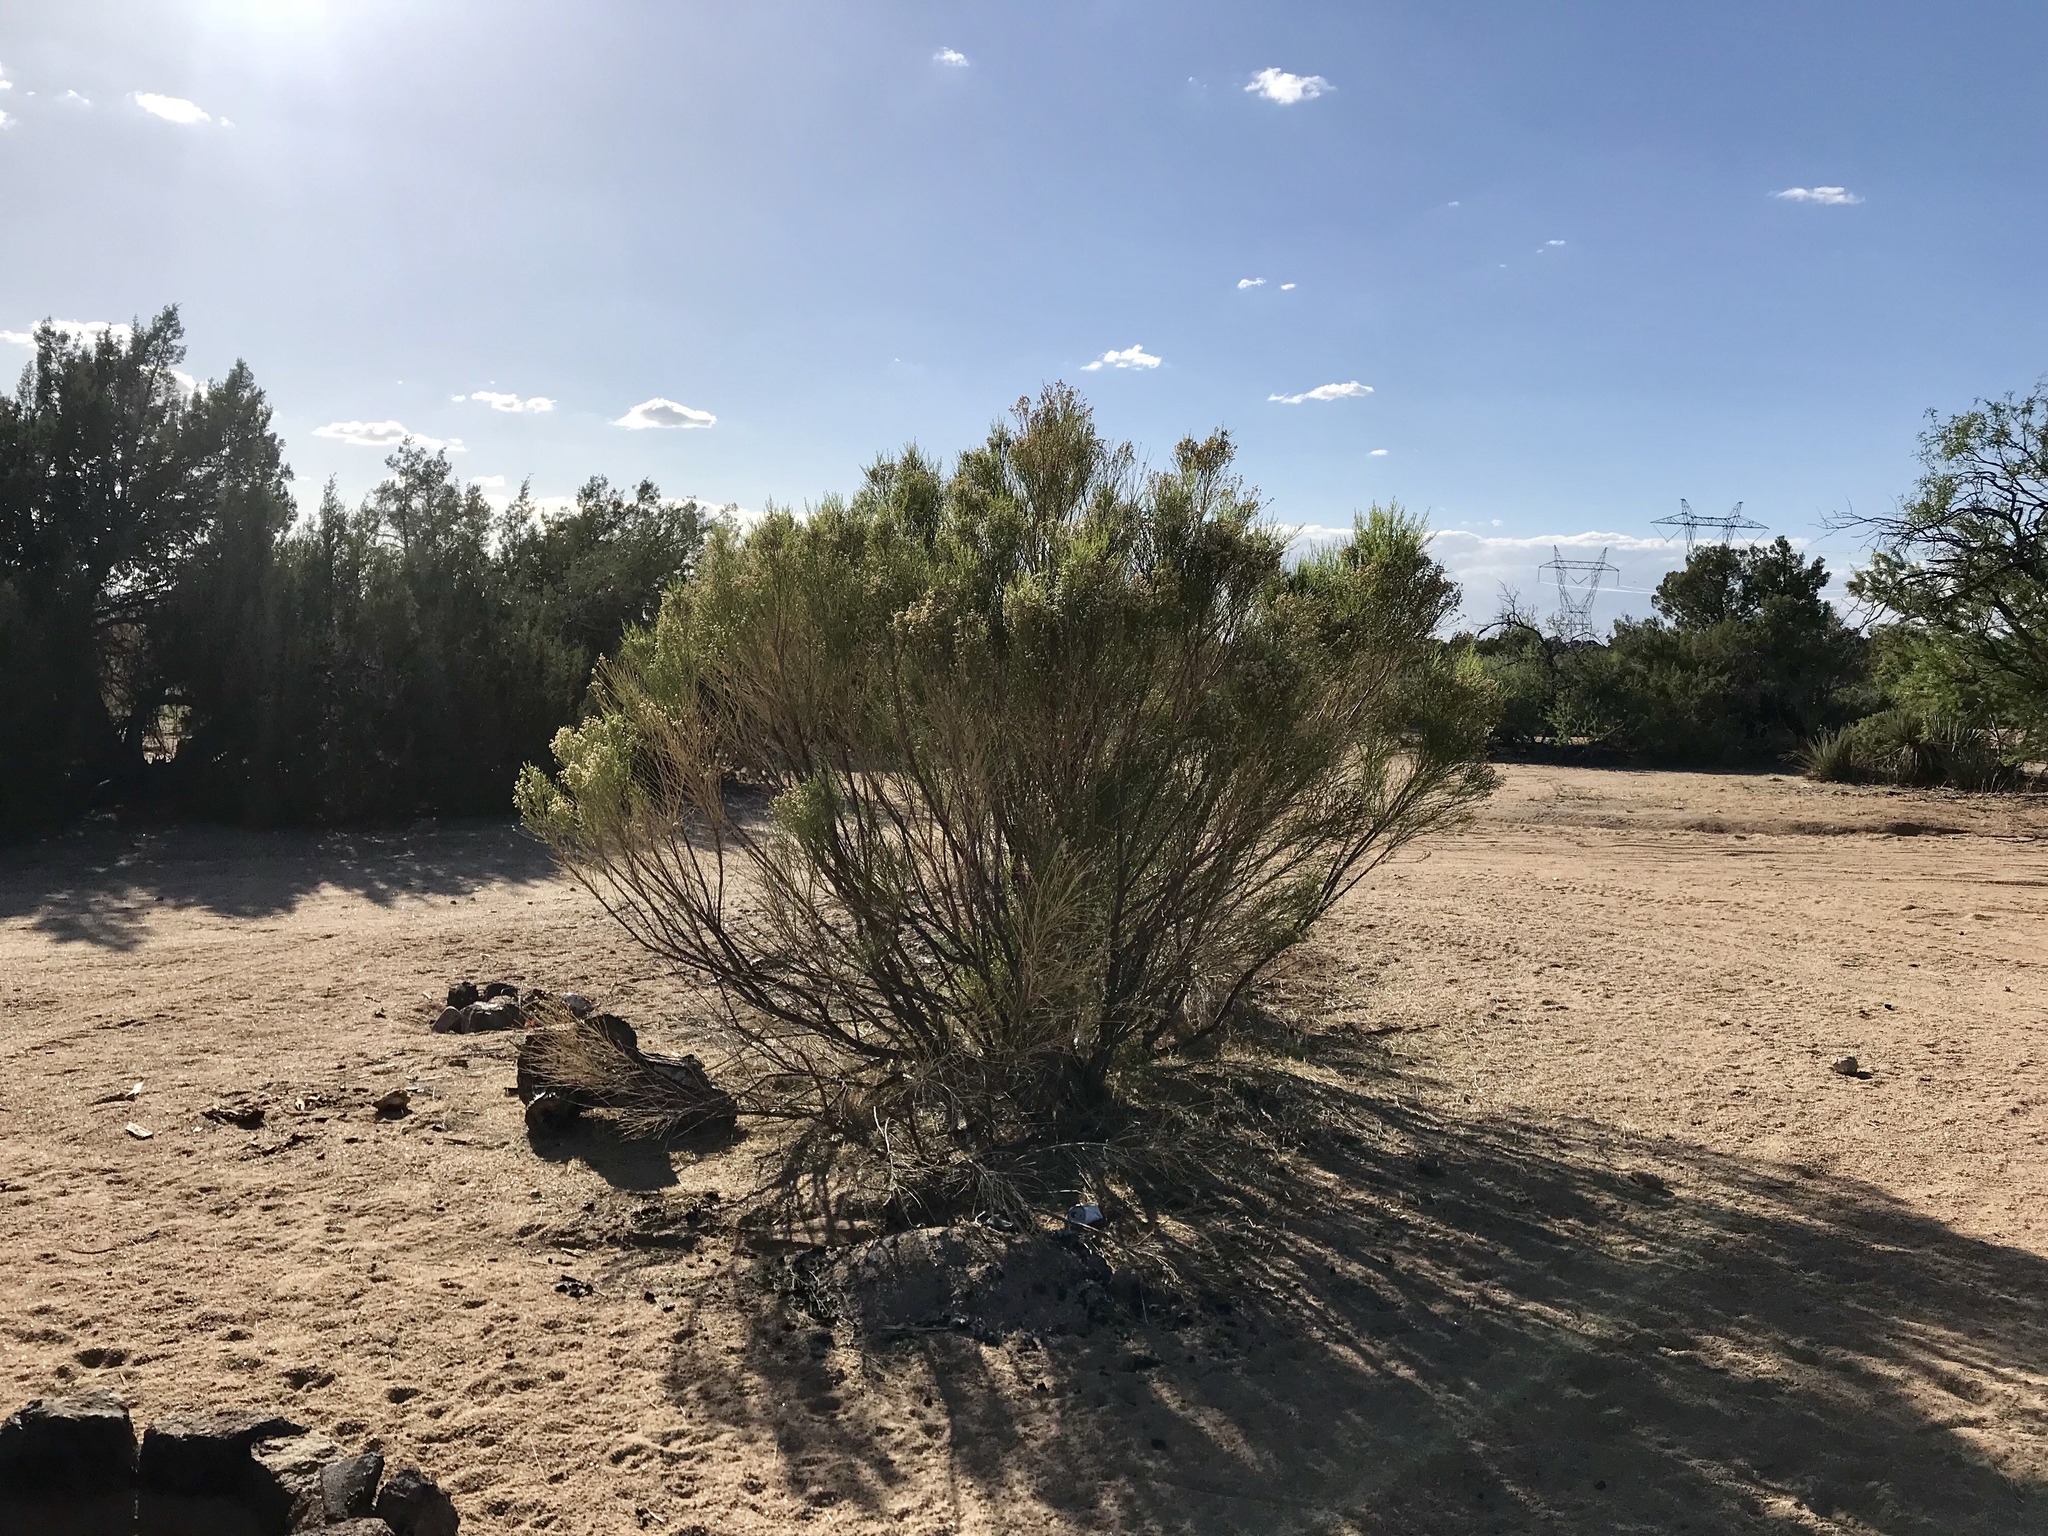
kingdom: Plantae
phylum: Tracheophyta
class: Magnoliopsida
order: Asterales
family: Asteraceae
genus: Baccharis
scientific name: Baccharis sarothroides
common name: Desert-broom
